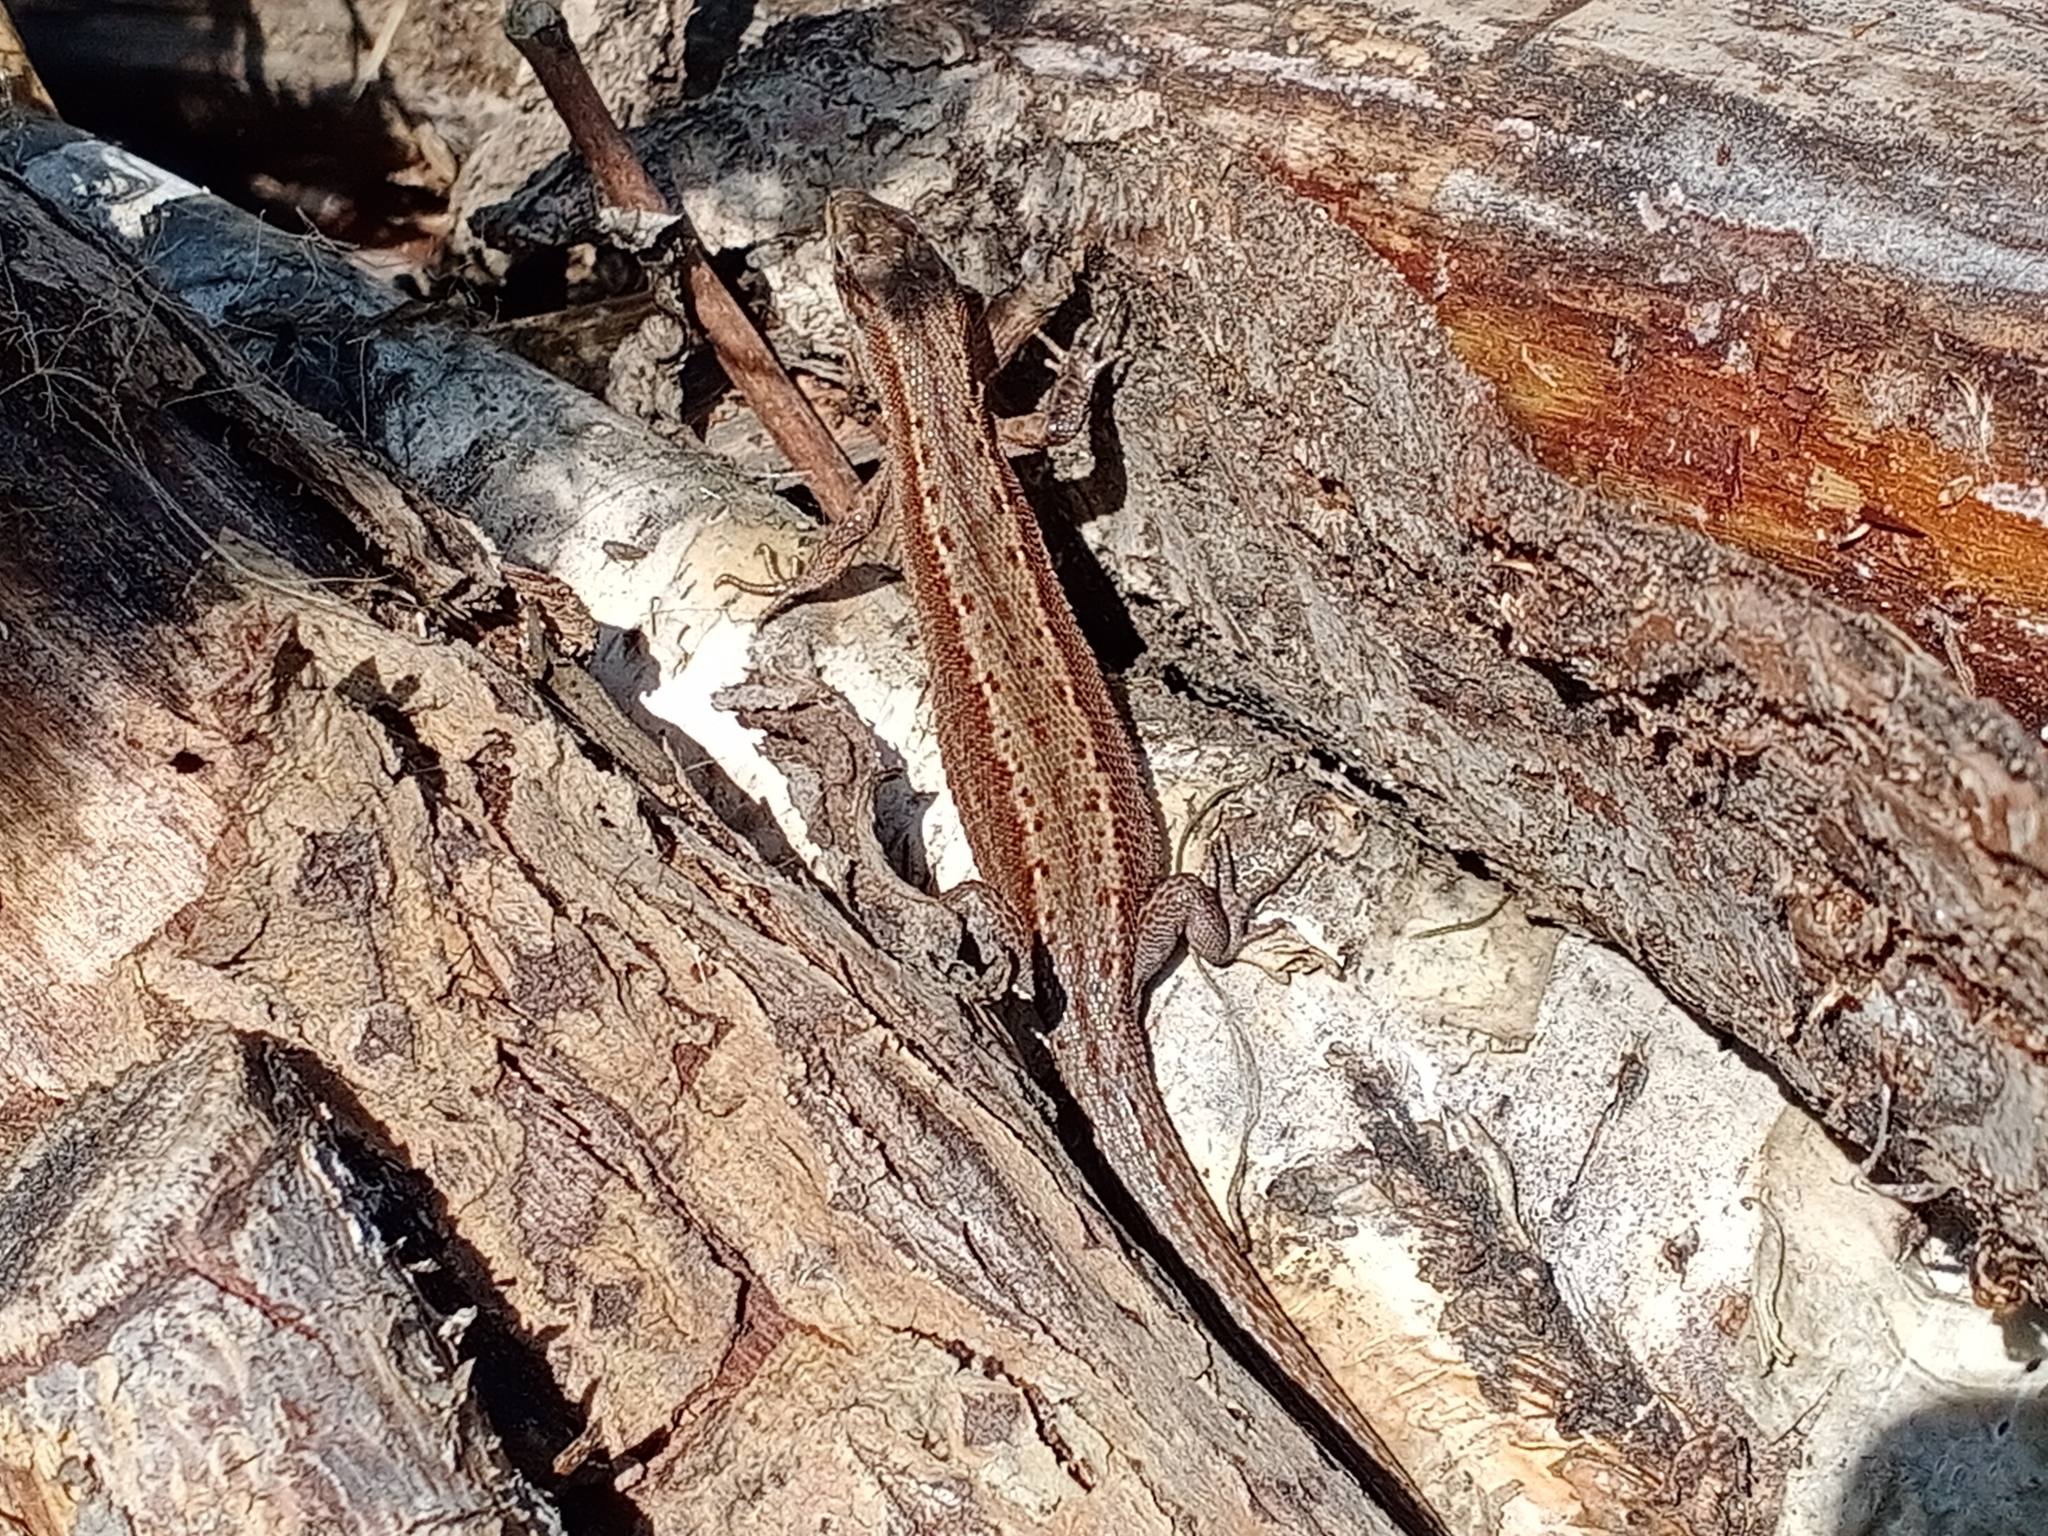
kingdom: Animalia
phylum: Chordata
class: Squamata
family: Lacertidae
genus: Zootoca
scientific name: Zootoca vivipara
